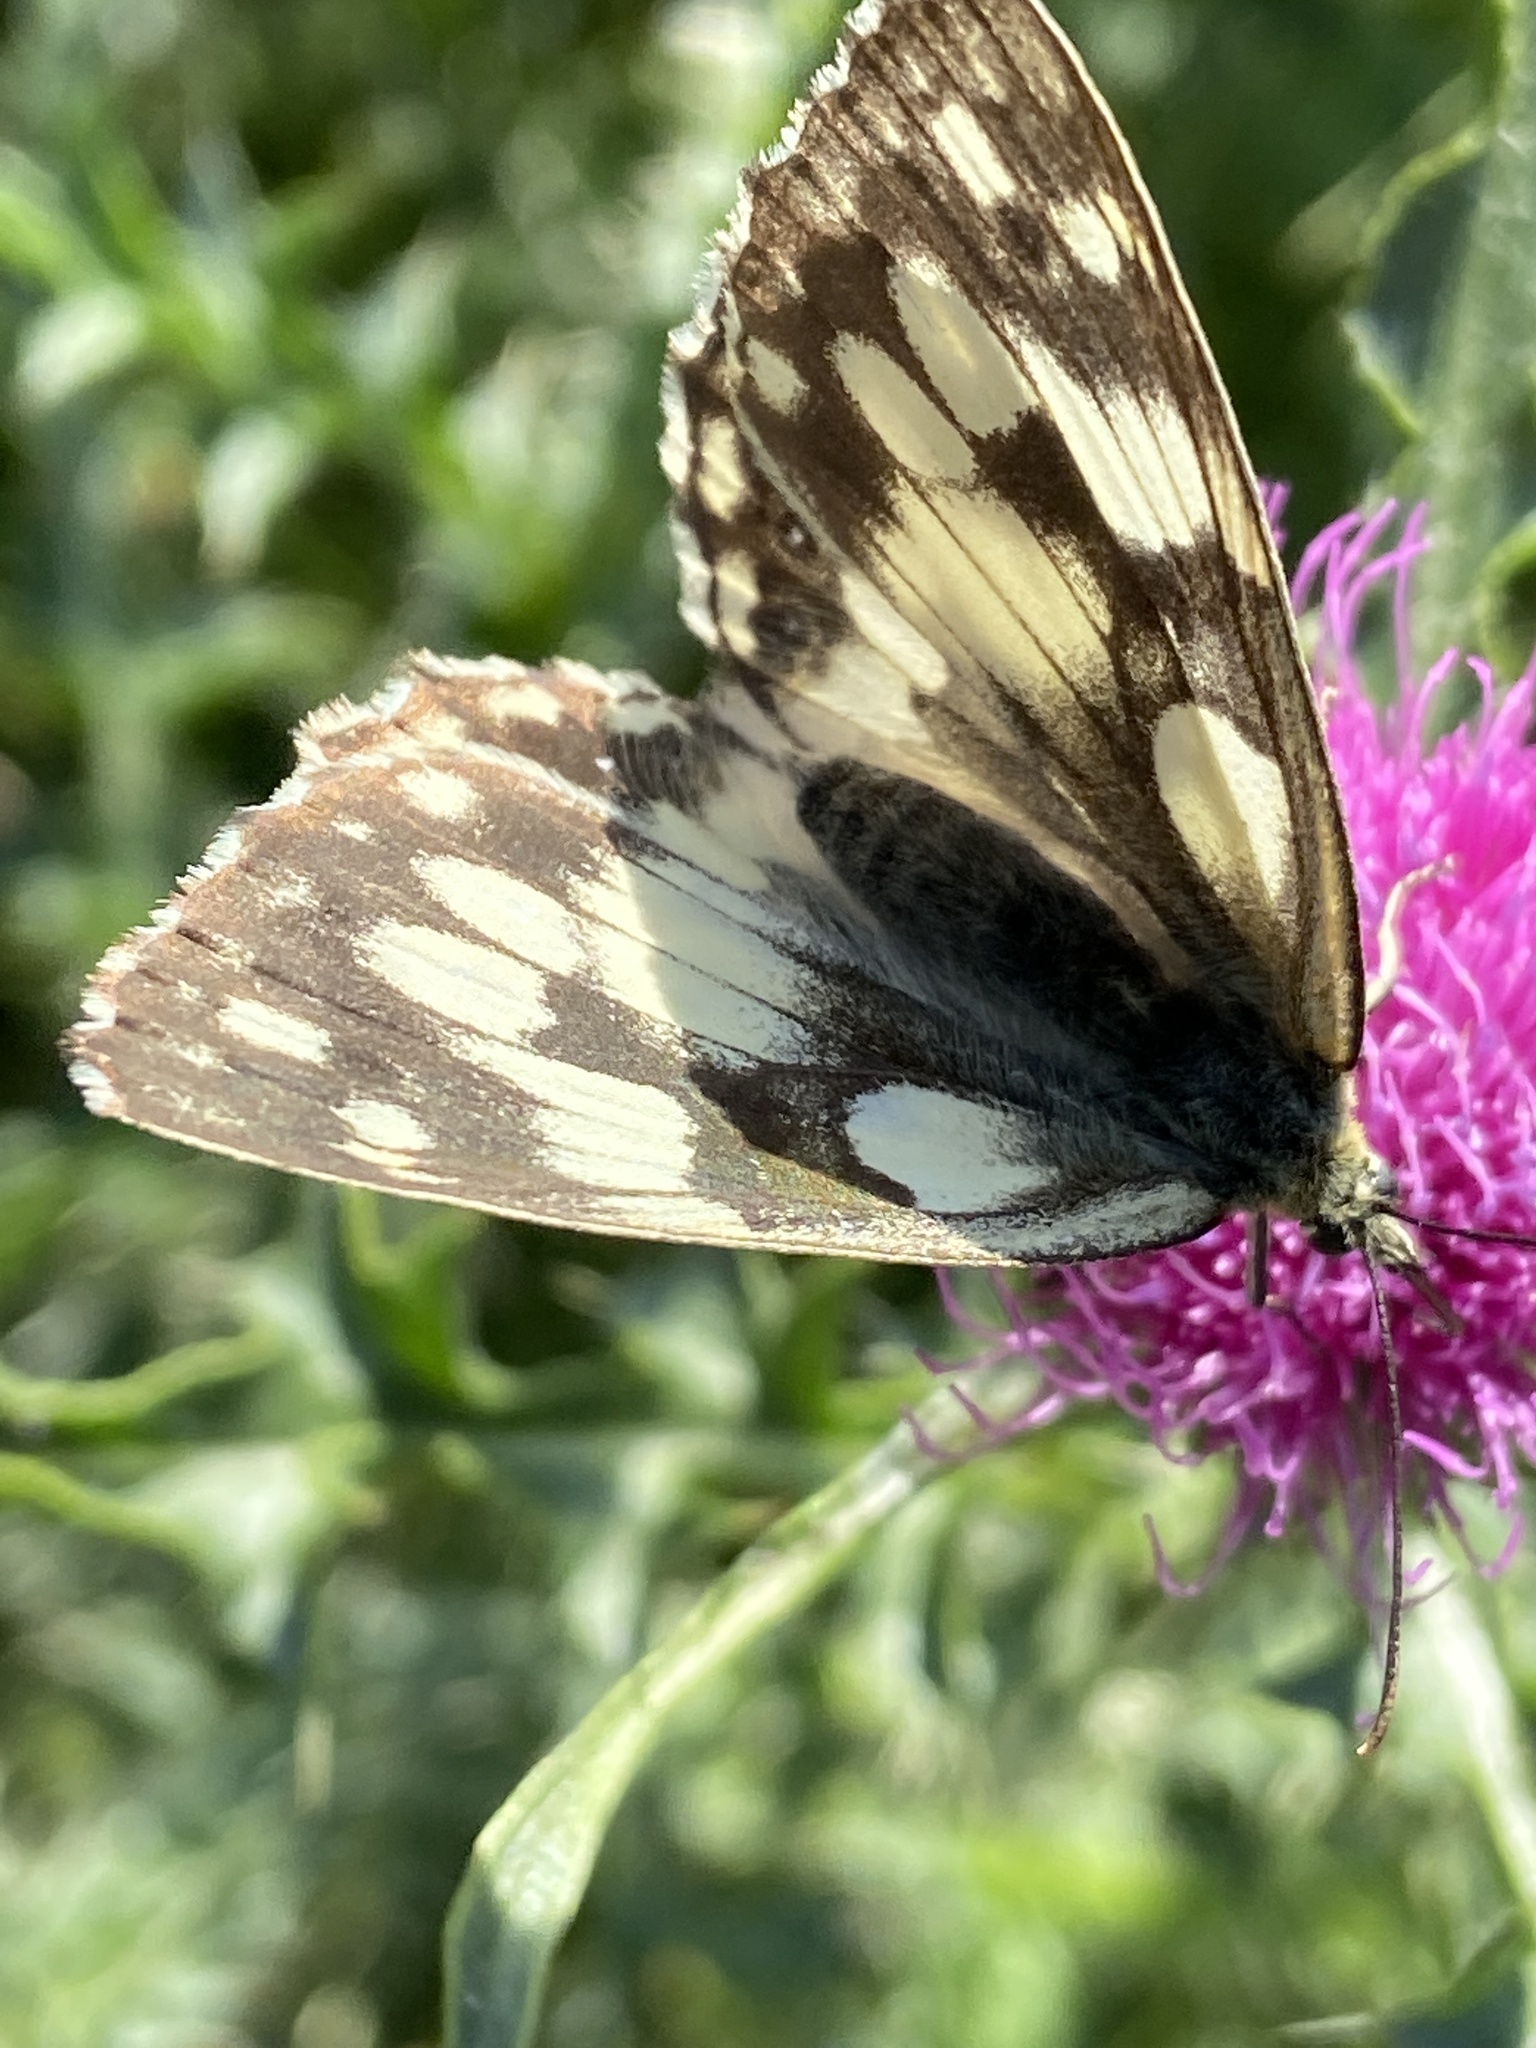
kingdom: Animalia
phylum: Arthropoda
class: Insecta
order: Lepidoptera
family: Nymphalidae
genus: Melanargia
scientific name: Melanargia galathea
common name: Marbled white
